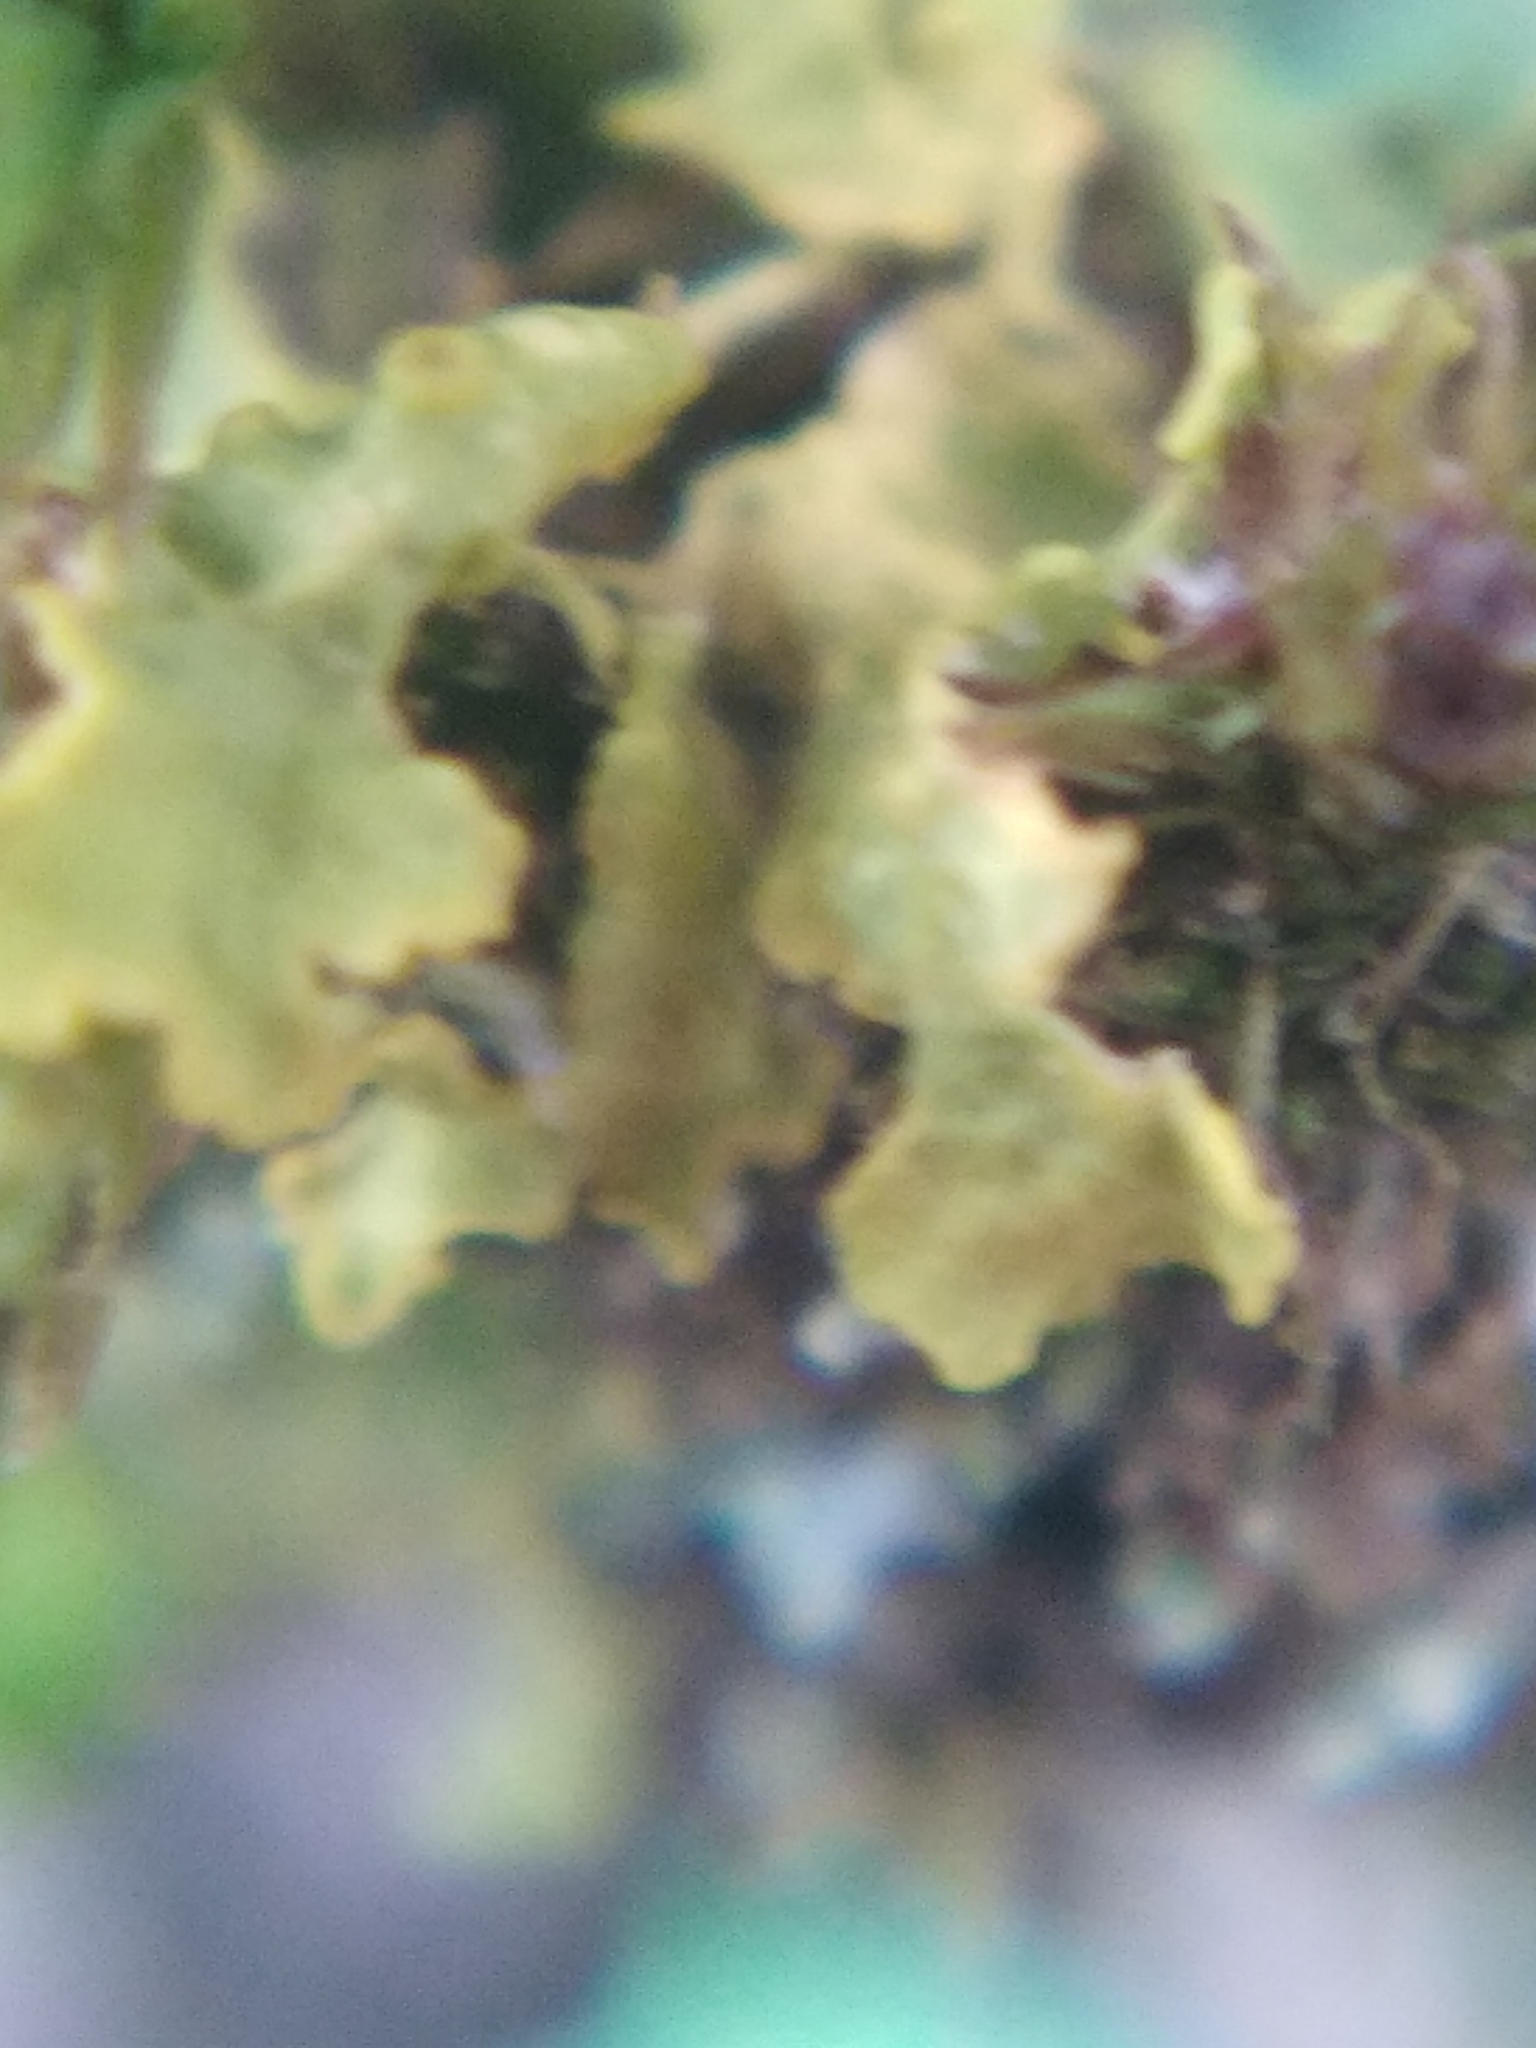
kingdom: Fungi
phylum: Ascomycota
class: Lecanoromycetes
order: Teloschistales
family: Teloschistaceae
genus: Xanthoria
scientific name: Xanthoria parietina
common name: Common orange lichen
